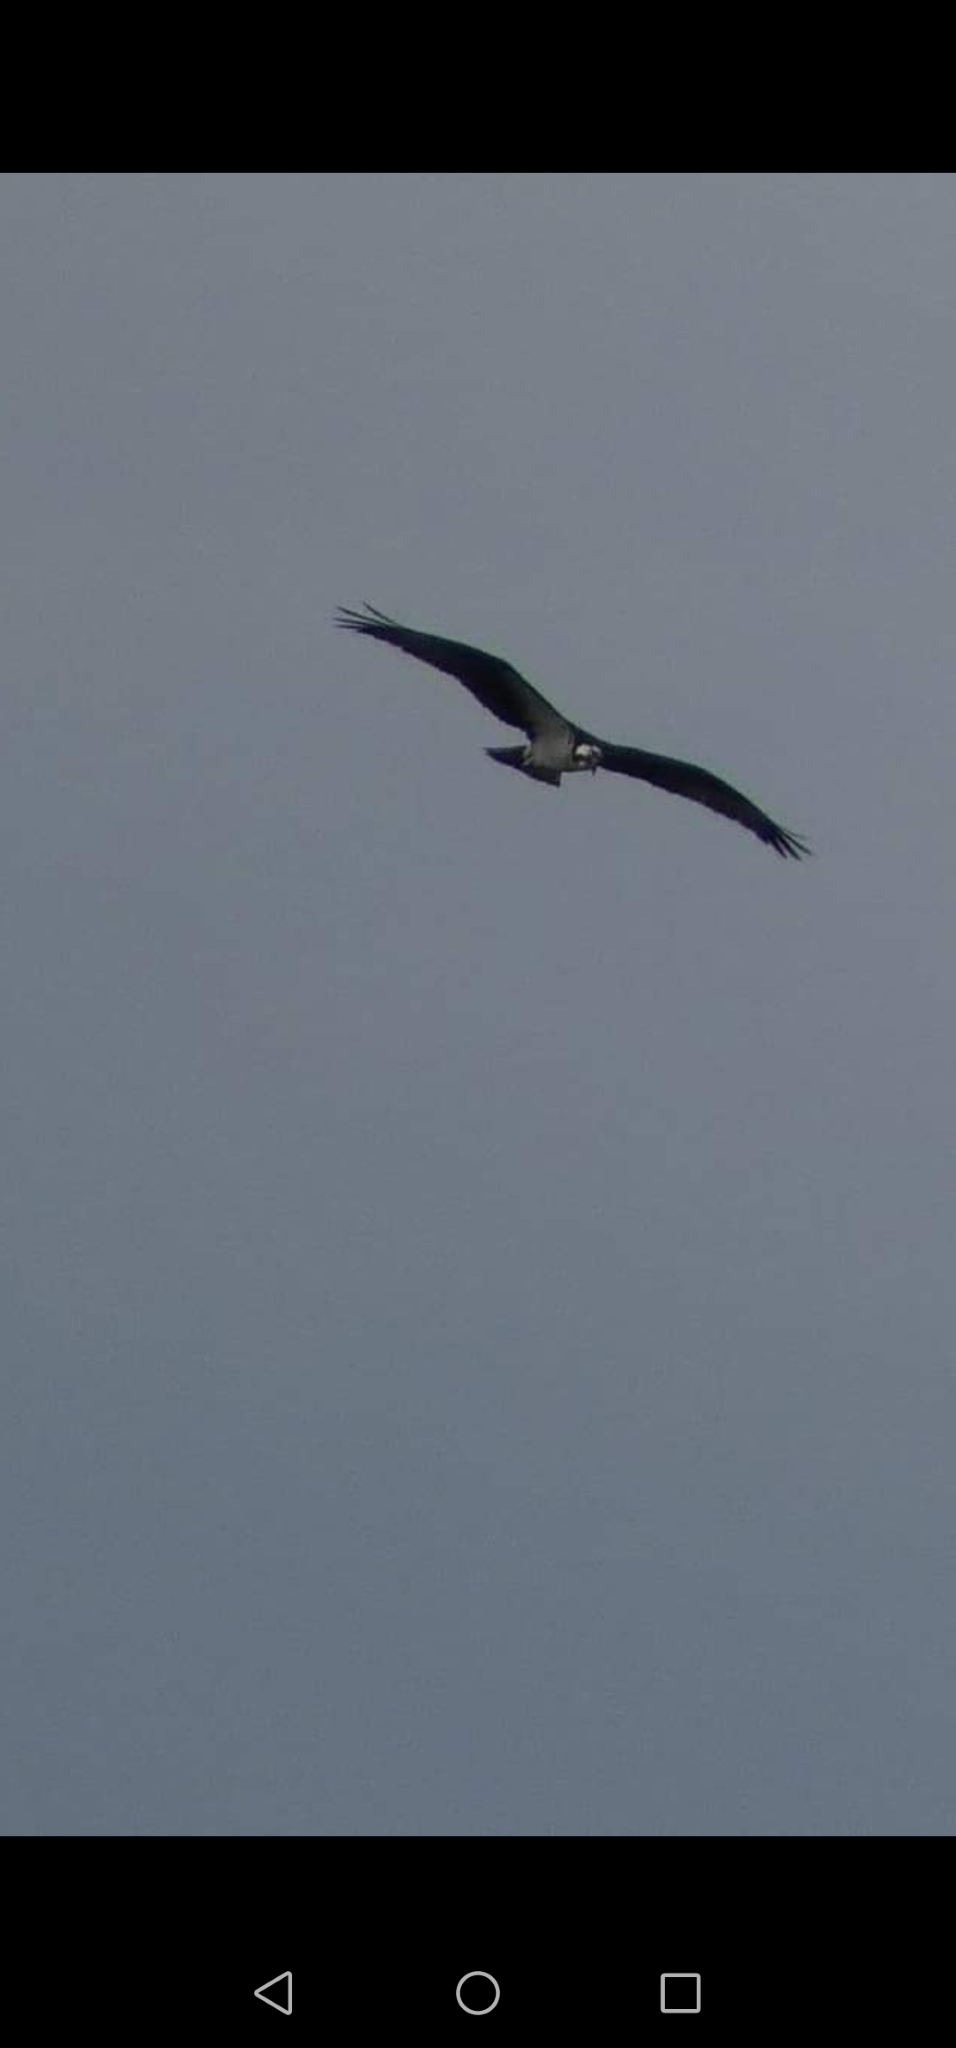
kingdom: Animalia
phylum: Chordata
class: Aves
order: Accipitriformes
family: Pandionidae
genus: Pandion
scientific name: Pandion haliaetus
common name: Osprey
